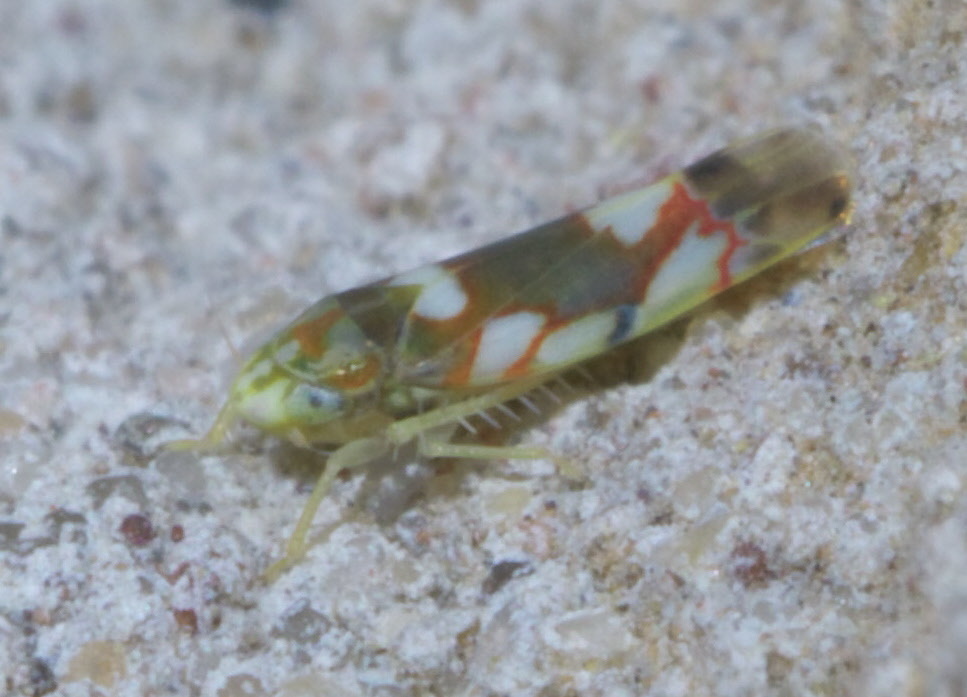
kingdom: Animalia
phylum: Arthropoda
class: Insecta
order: Hemiptera
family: Cicadellidae
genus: Erythroneura
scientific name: Erythroneura elegans
